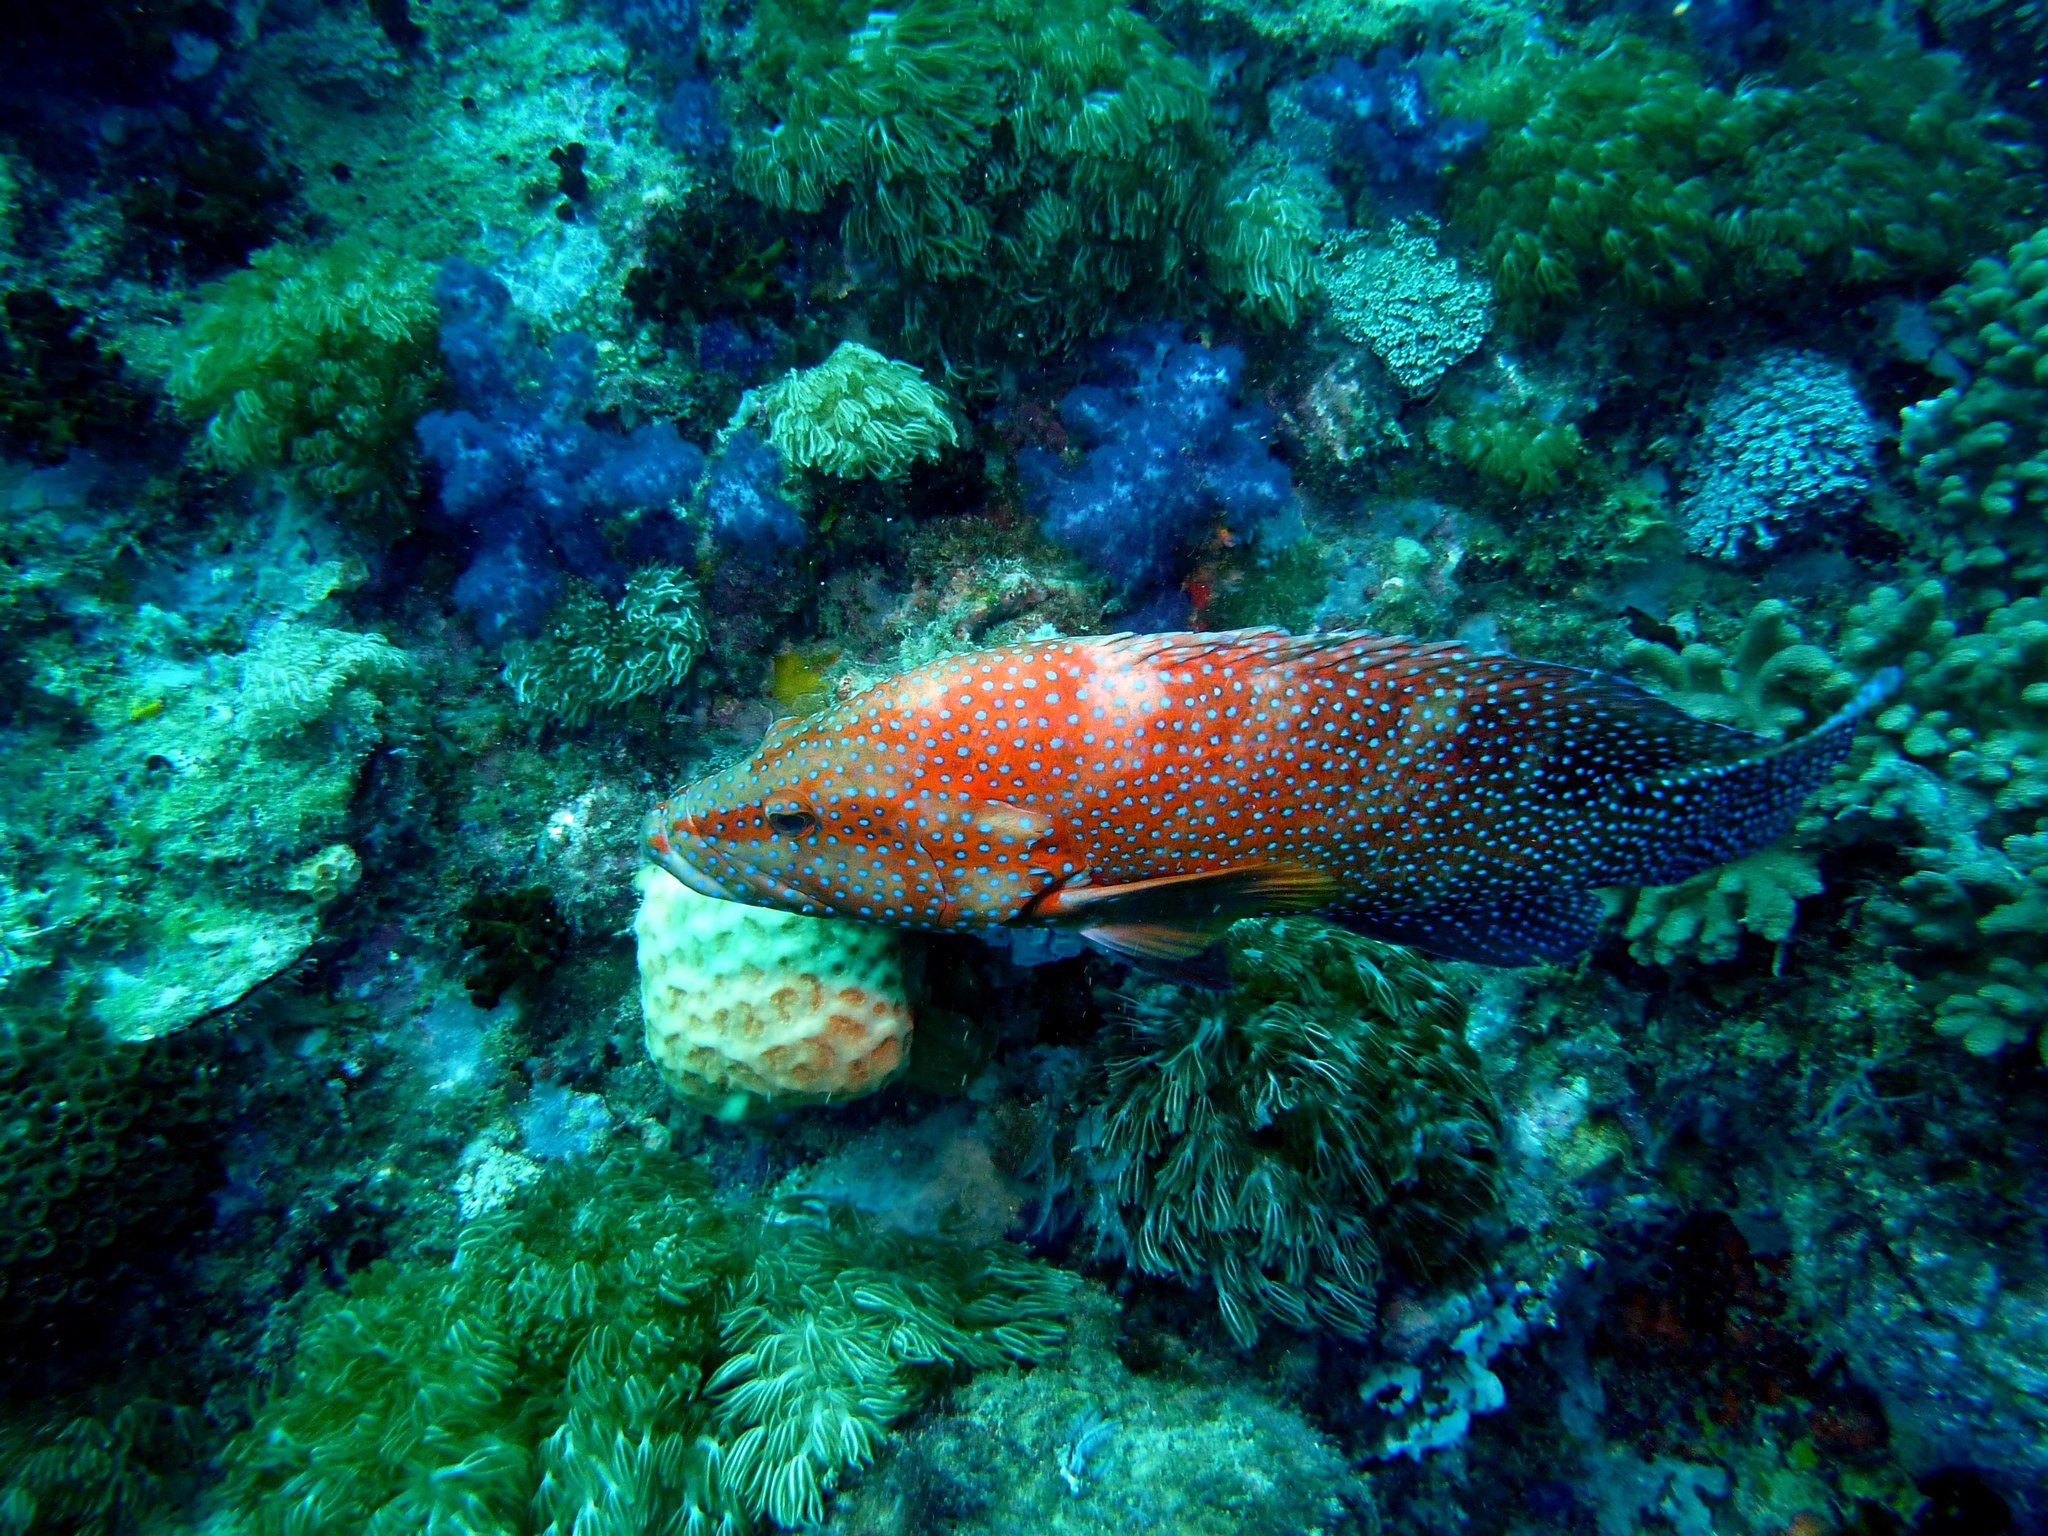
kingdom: Animalia
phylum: Chordata
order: Perciformes
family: Serranidae
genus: Cephalopholis
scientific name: Cephalopholis miniata
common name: Coral hind
